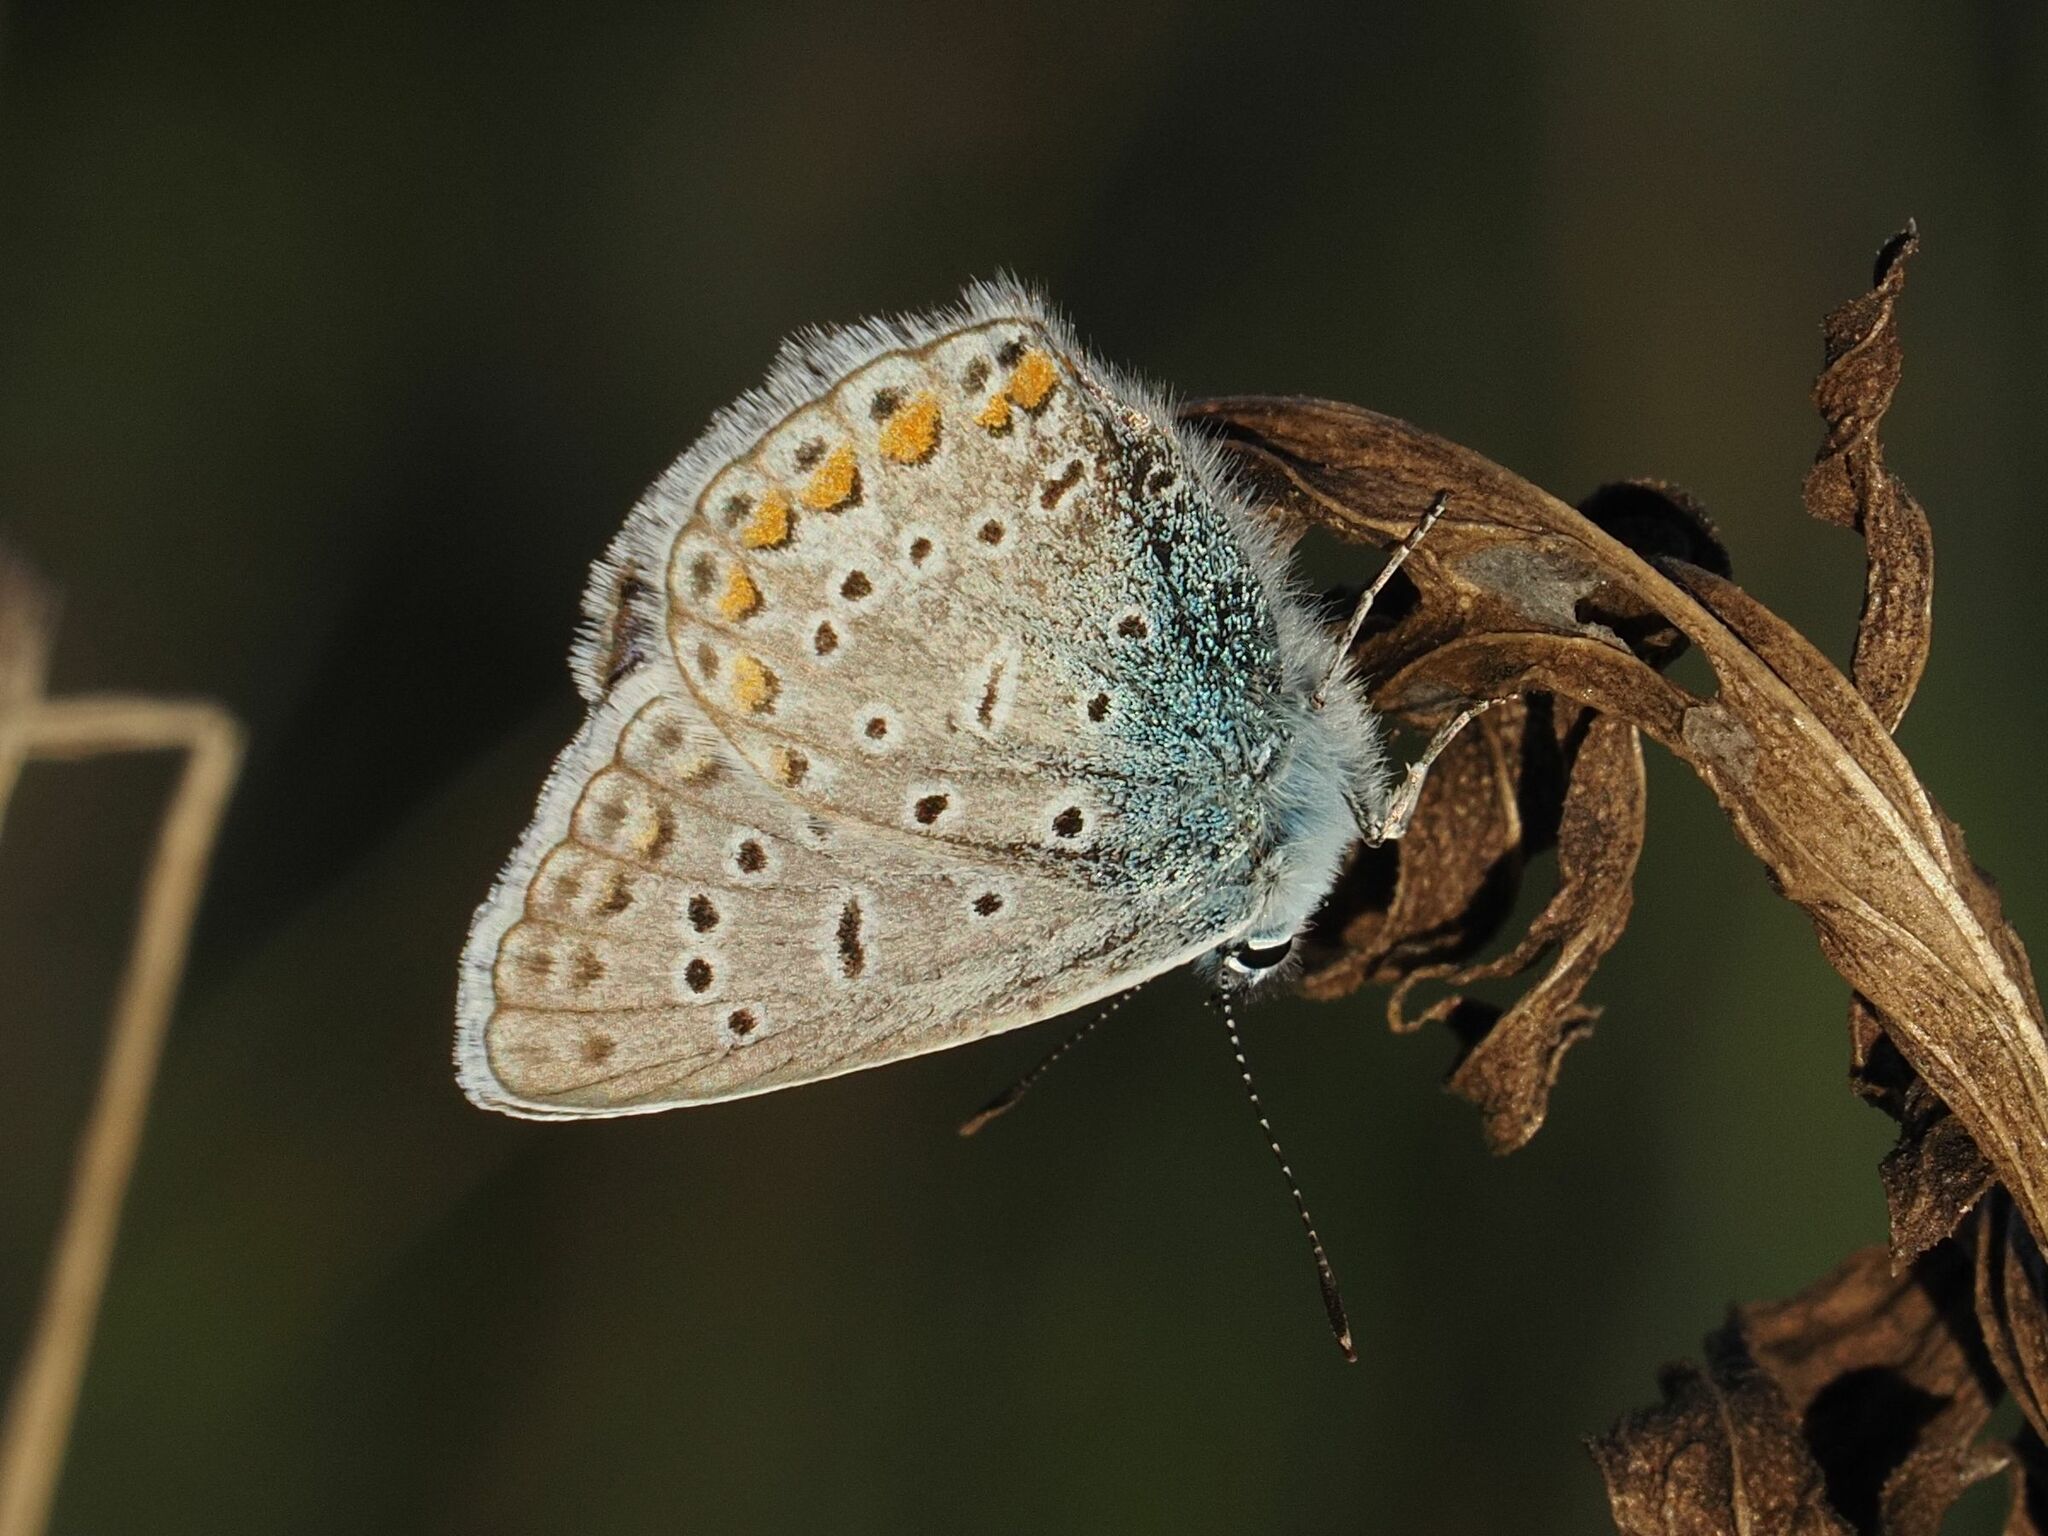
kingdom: Animalia
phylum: Arthropoda
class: Insecta
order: Lepidoptera
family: Lycaenidae
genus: Polyommatus
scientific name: Polyommatus icarus
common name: Common blue
